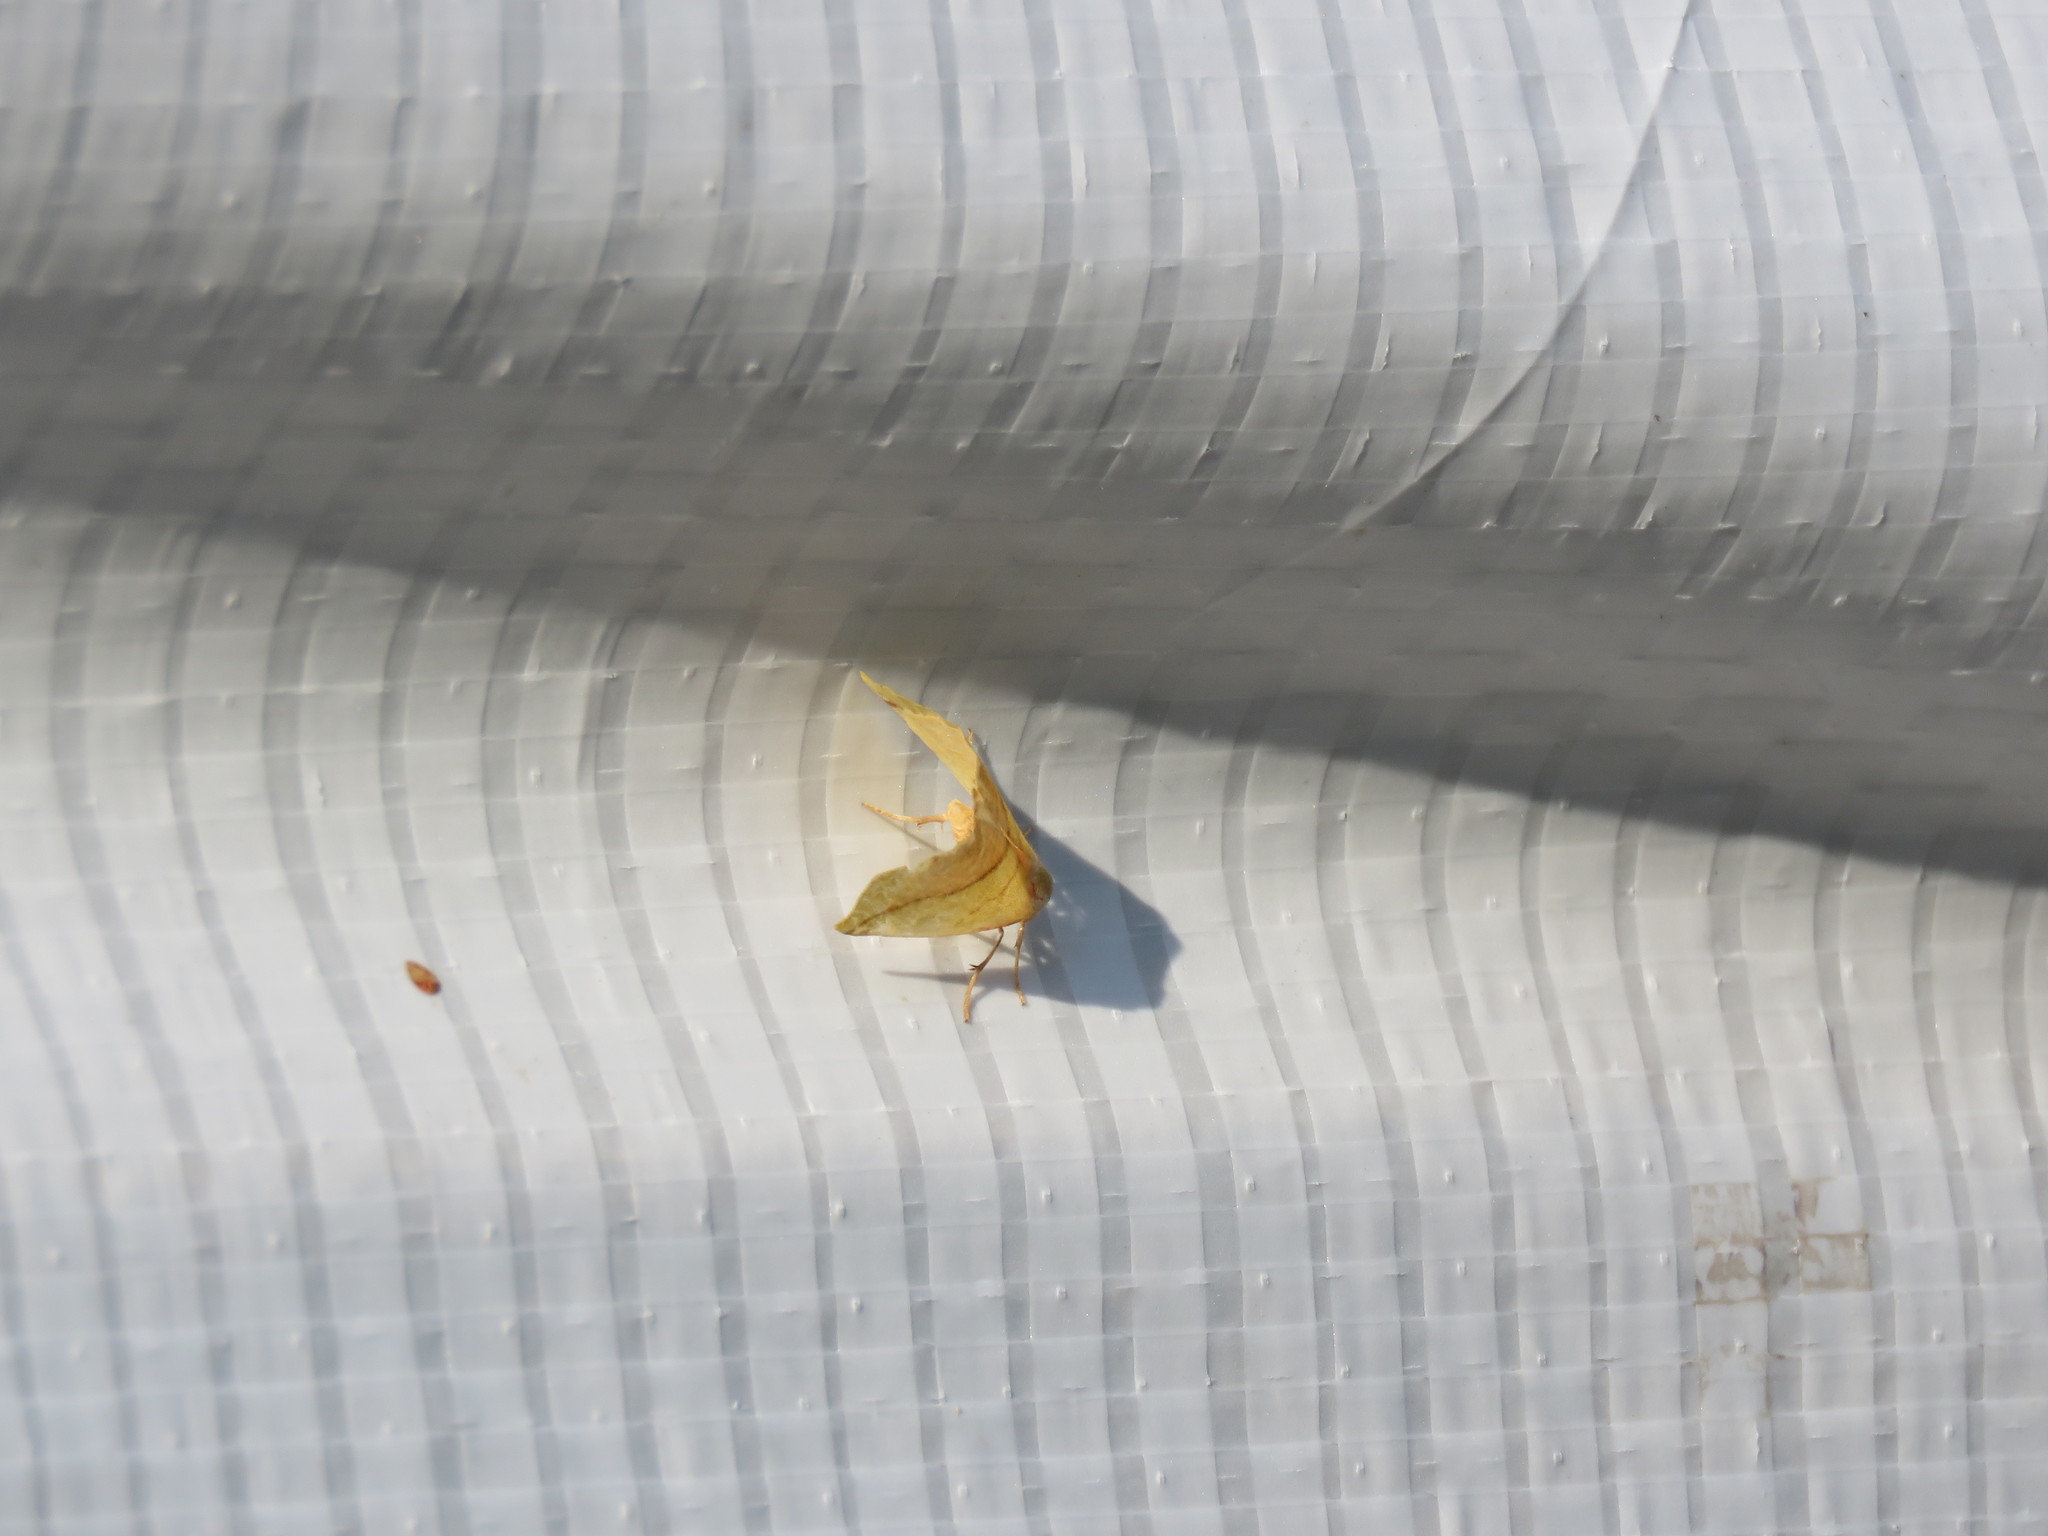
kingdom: Animalia
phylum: Arthropoda
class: Insecta
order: Lepidoptera
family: Geometridae
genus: Sicya
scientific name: Sicya macularia
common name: Sharp-lined yellow
